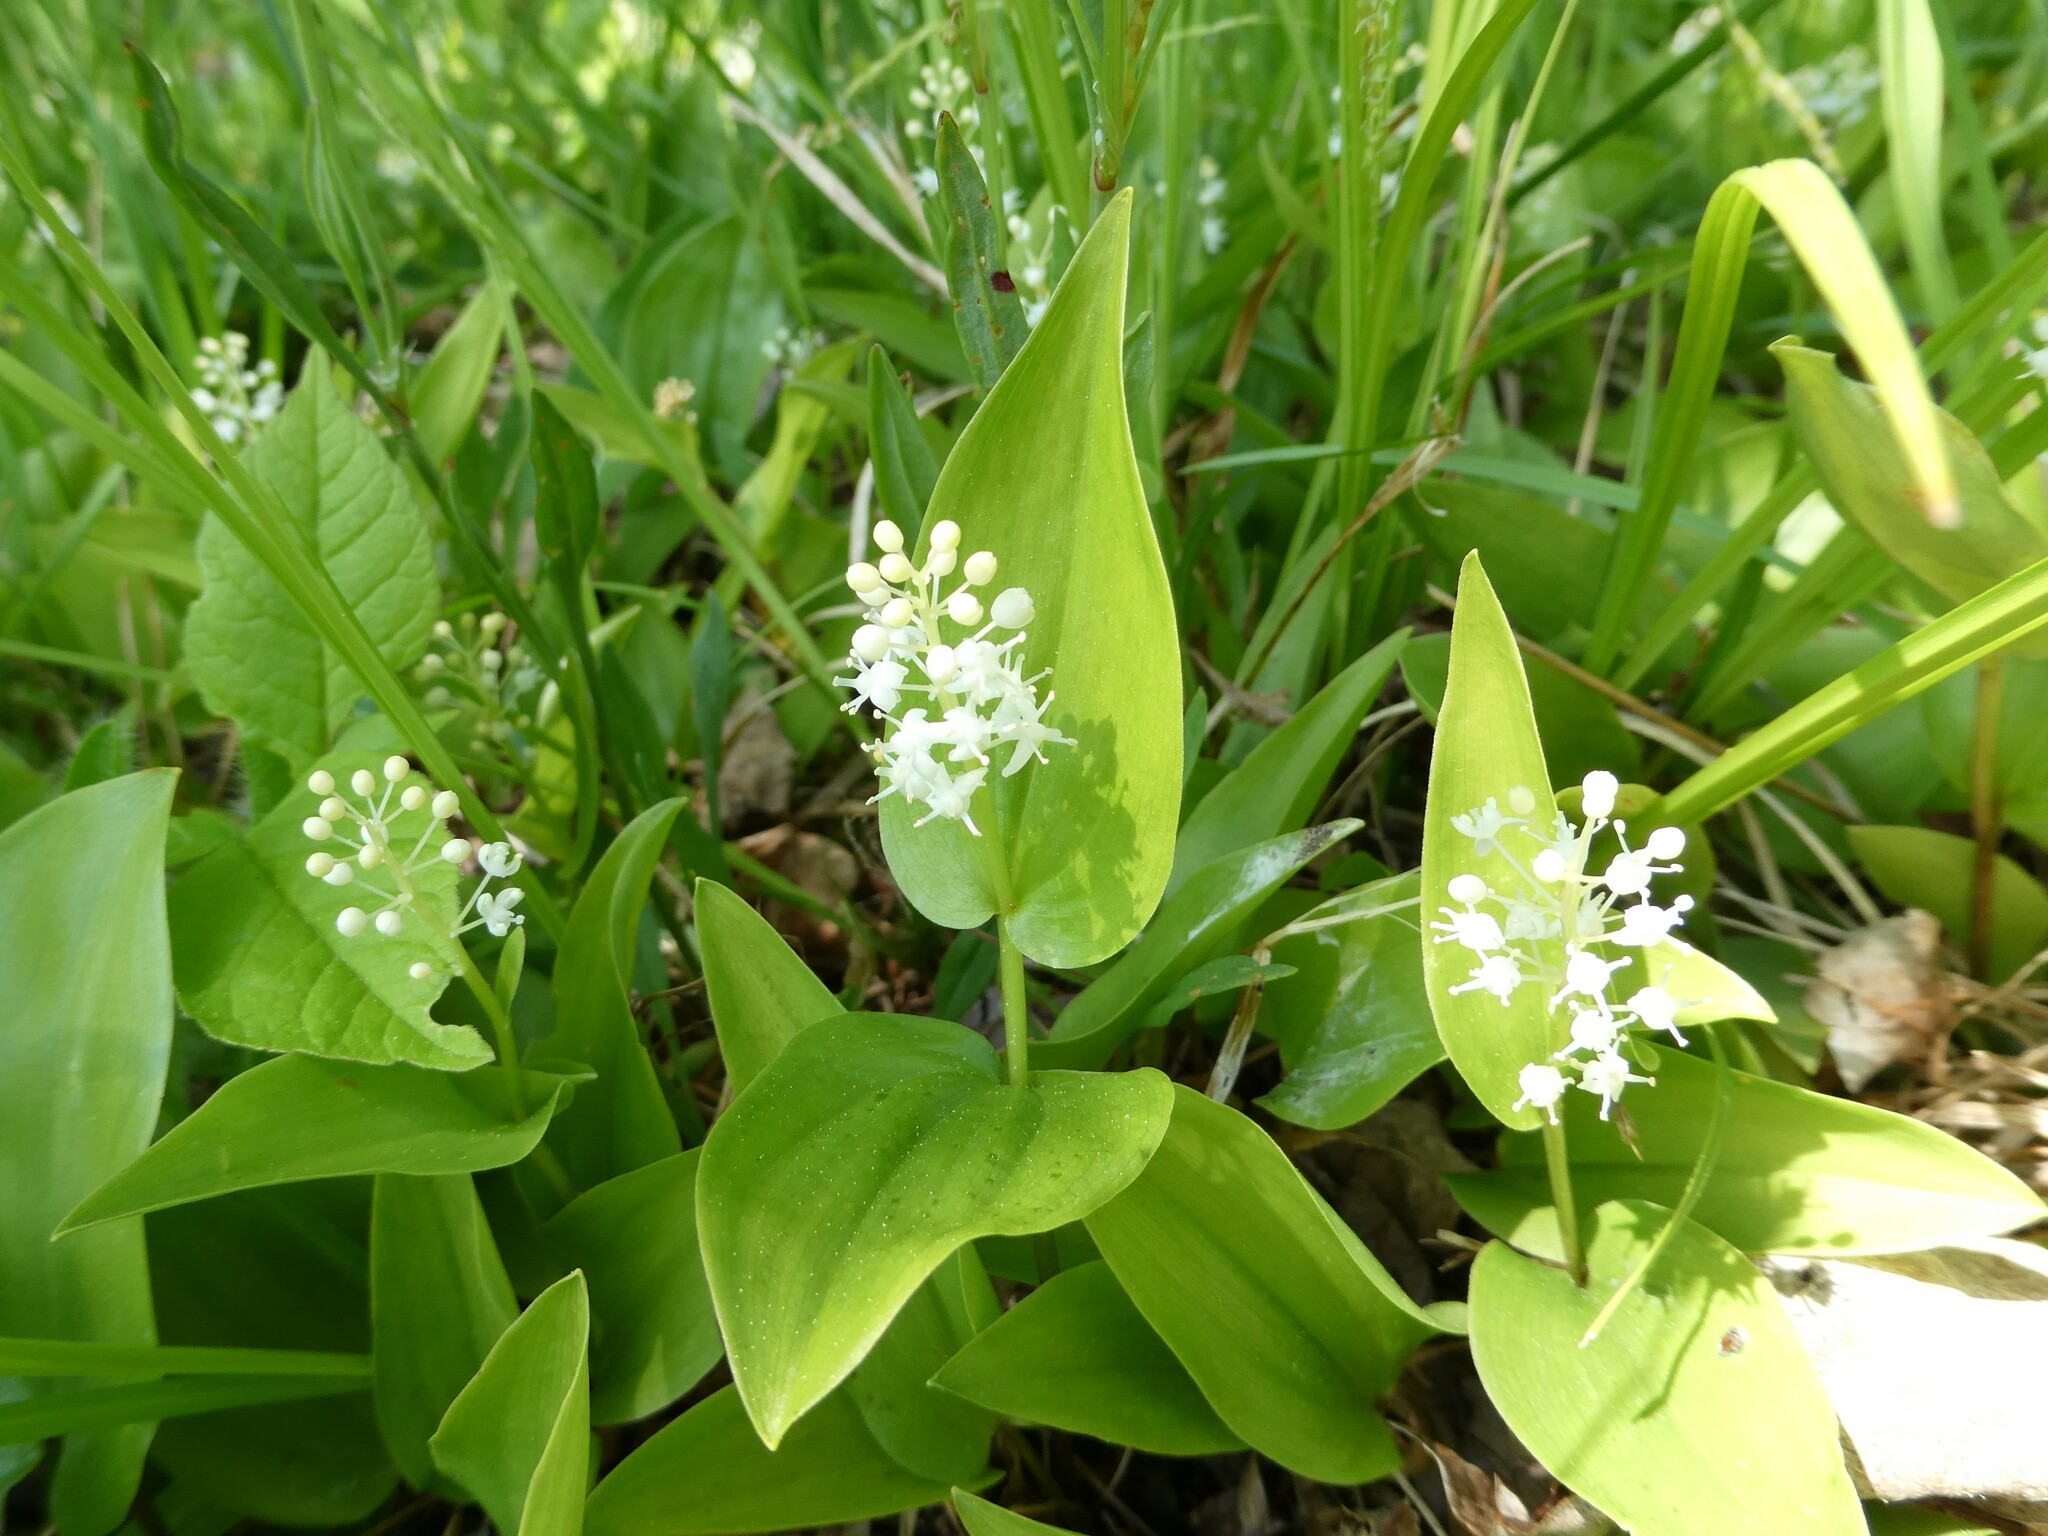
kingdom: Plantae
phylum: Tracheophyta
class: Liliopsida
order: Asparagales
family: Asparagaceae
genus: Maianthemum
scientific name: Maianthemum canadense
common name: False lily-of-the-valley
